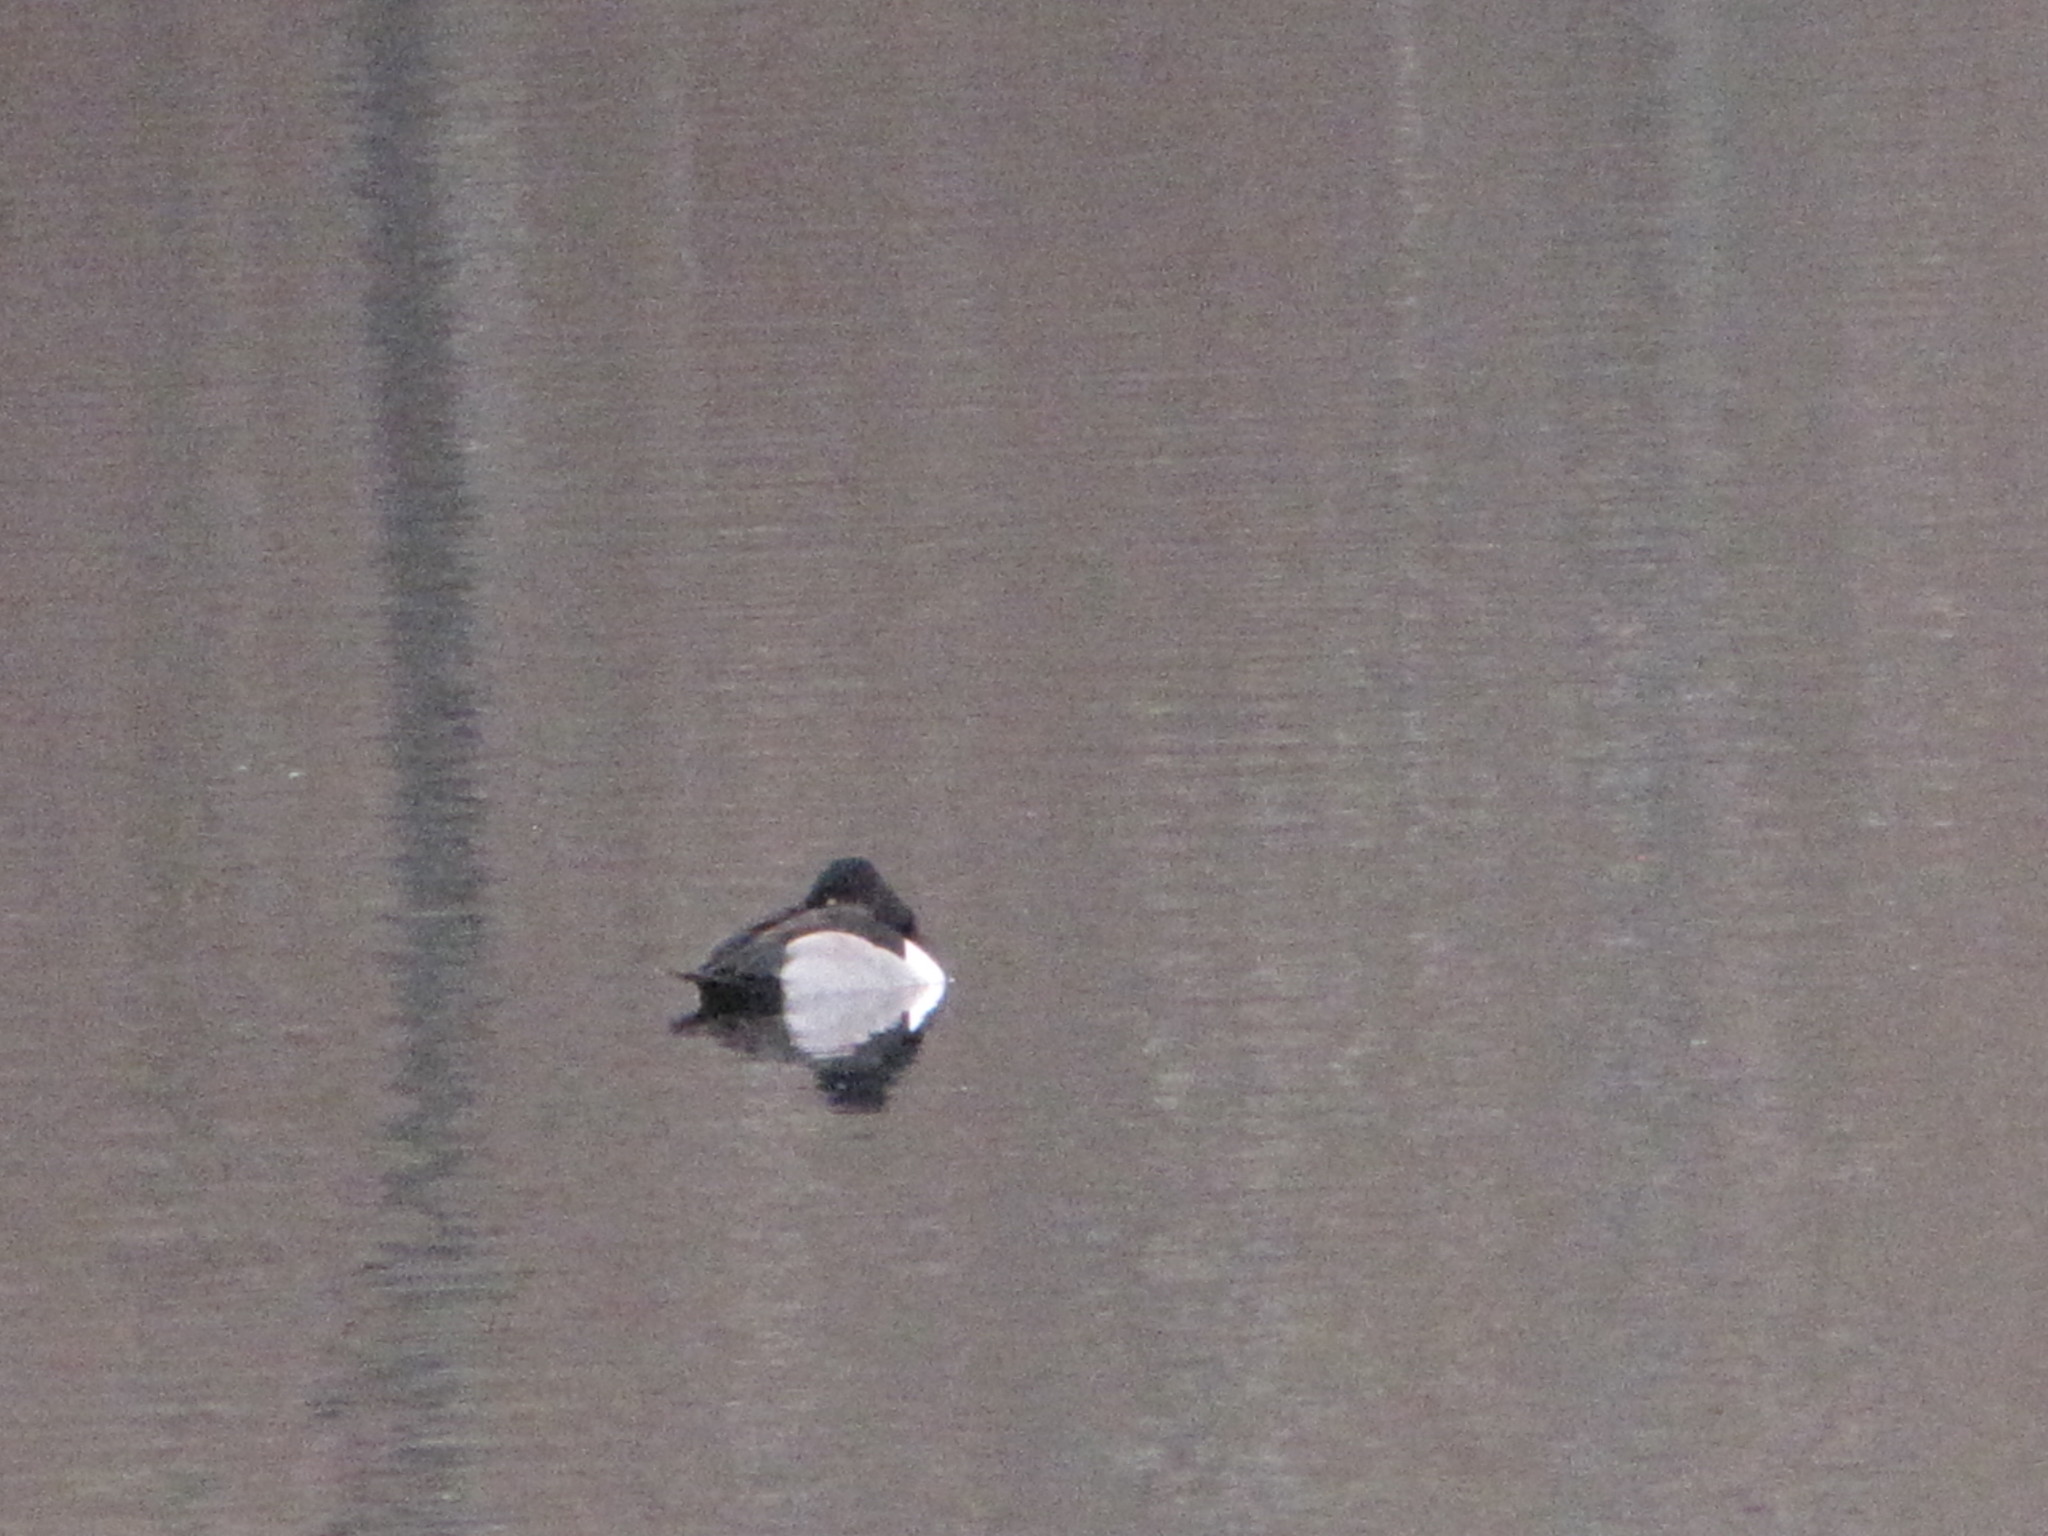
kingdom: Animalia
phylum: Chordata
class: Aves
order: Anseriformes
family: Anatidae
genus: Aythya
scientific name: Aythya collaris
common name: Ring-necked duck
